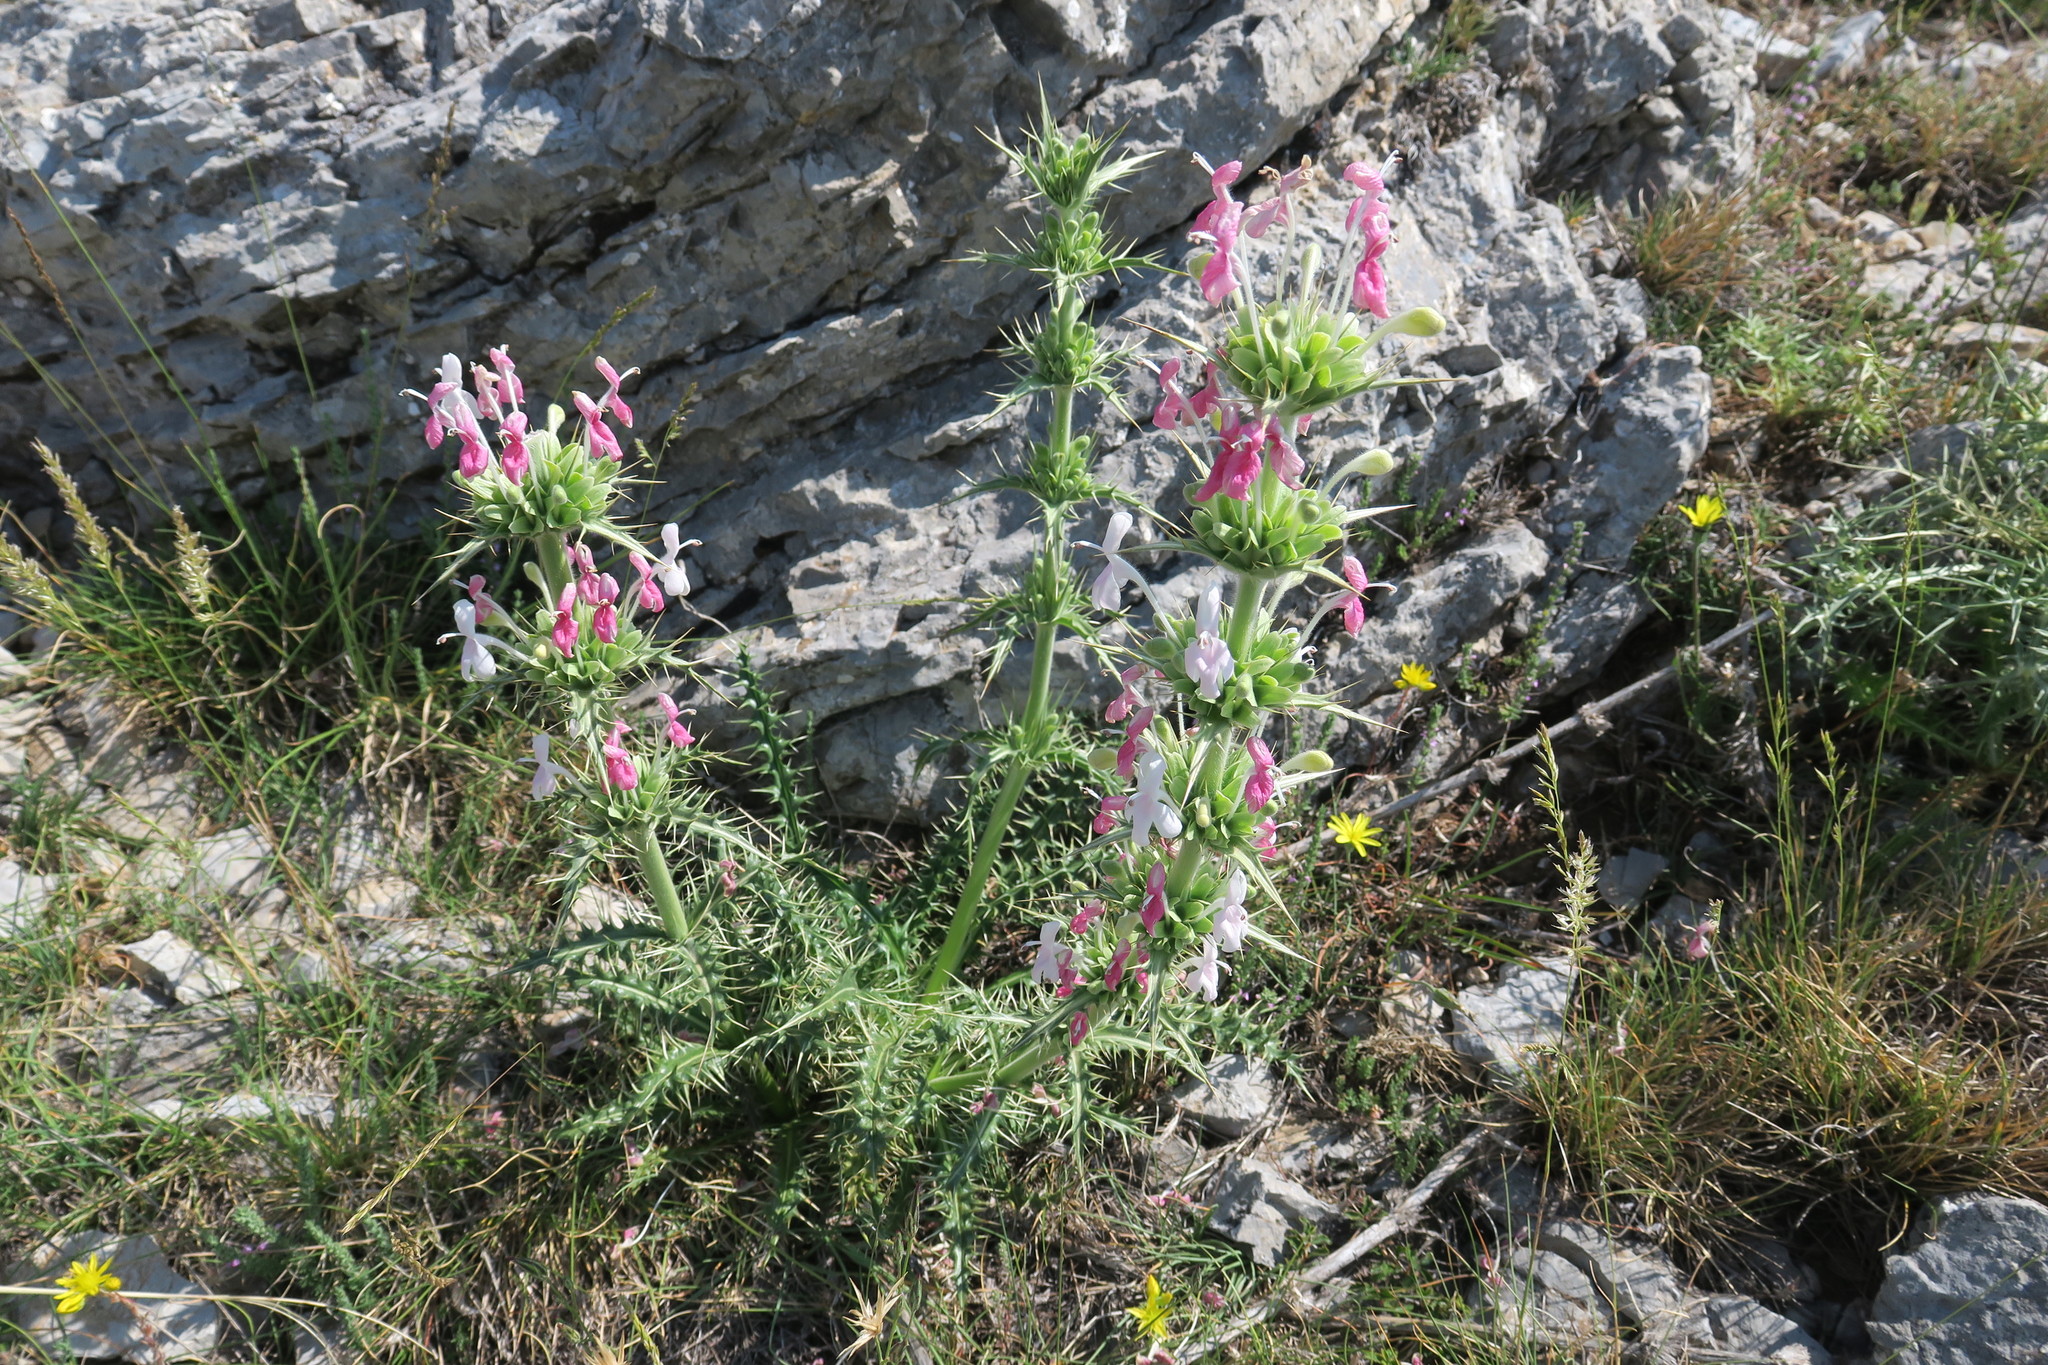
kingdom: Plantae
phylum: Tracheophyta
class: Magnoliopsida
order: Dipsacales
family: Caprifoliaceae
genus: Morina
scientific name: Morina persica
